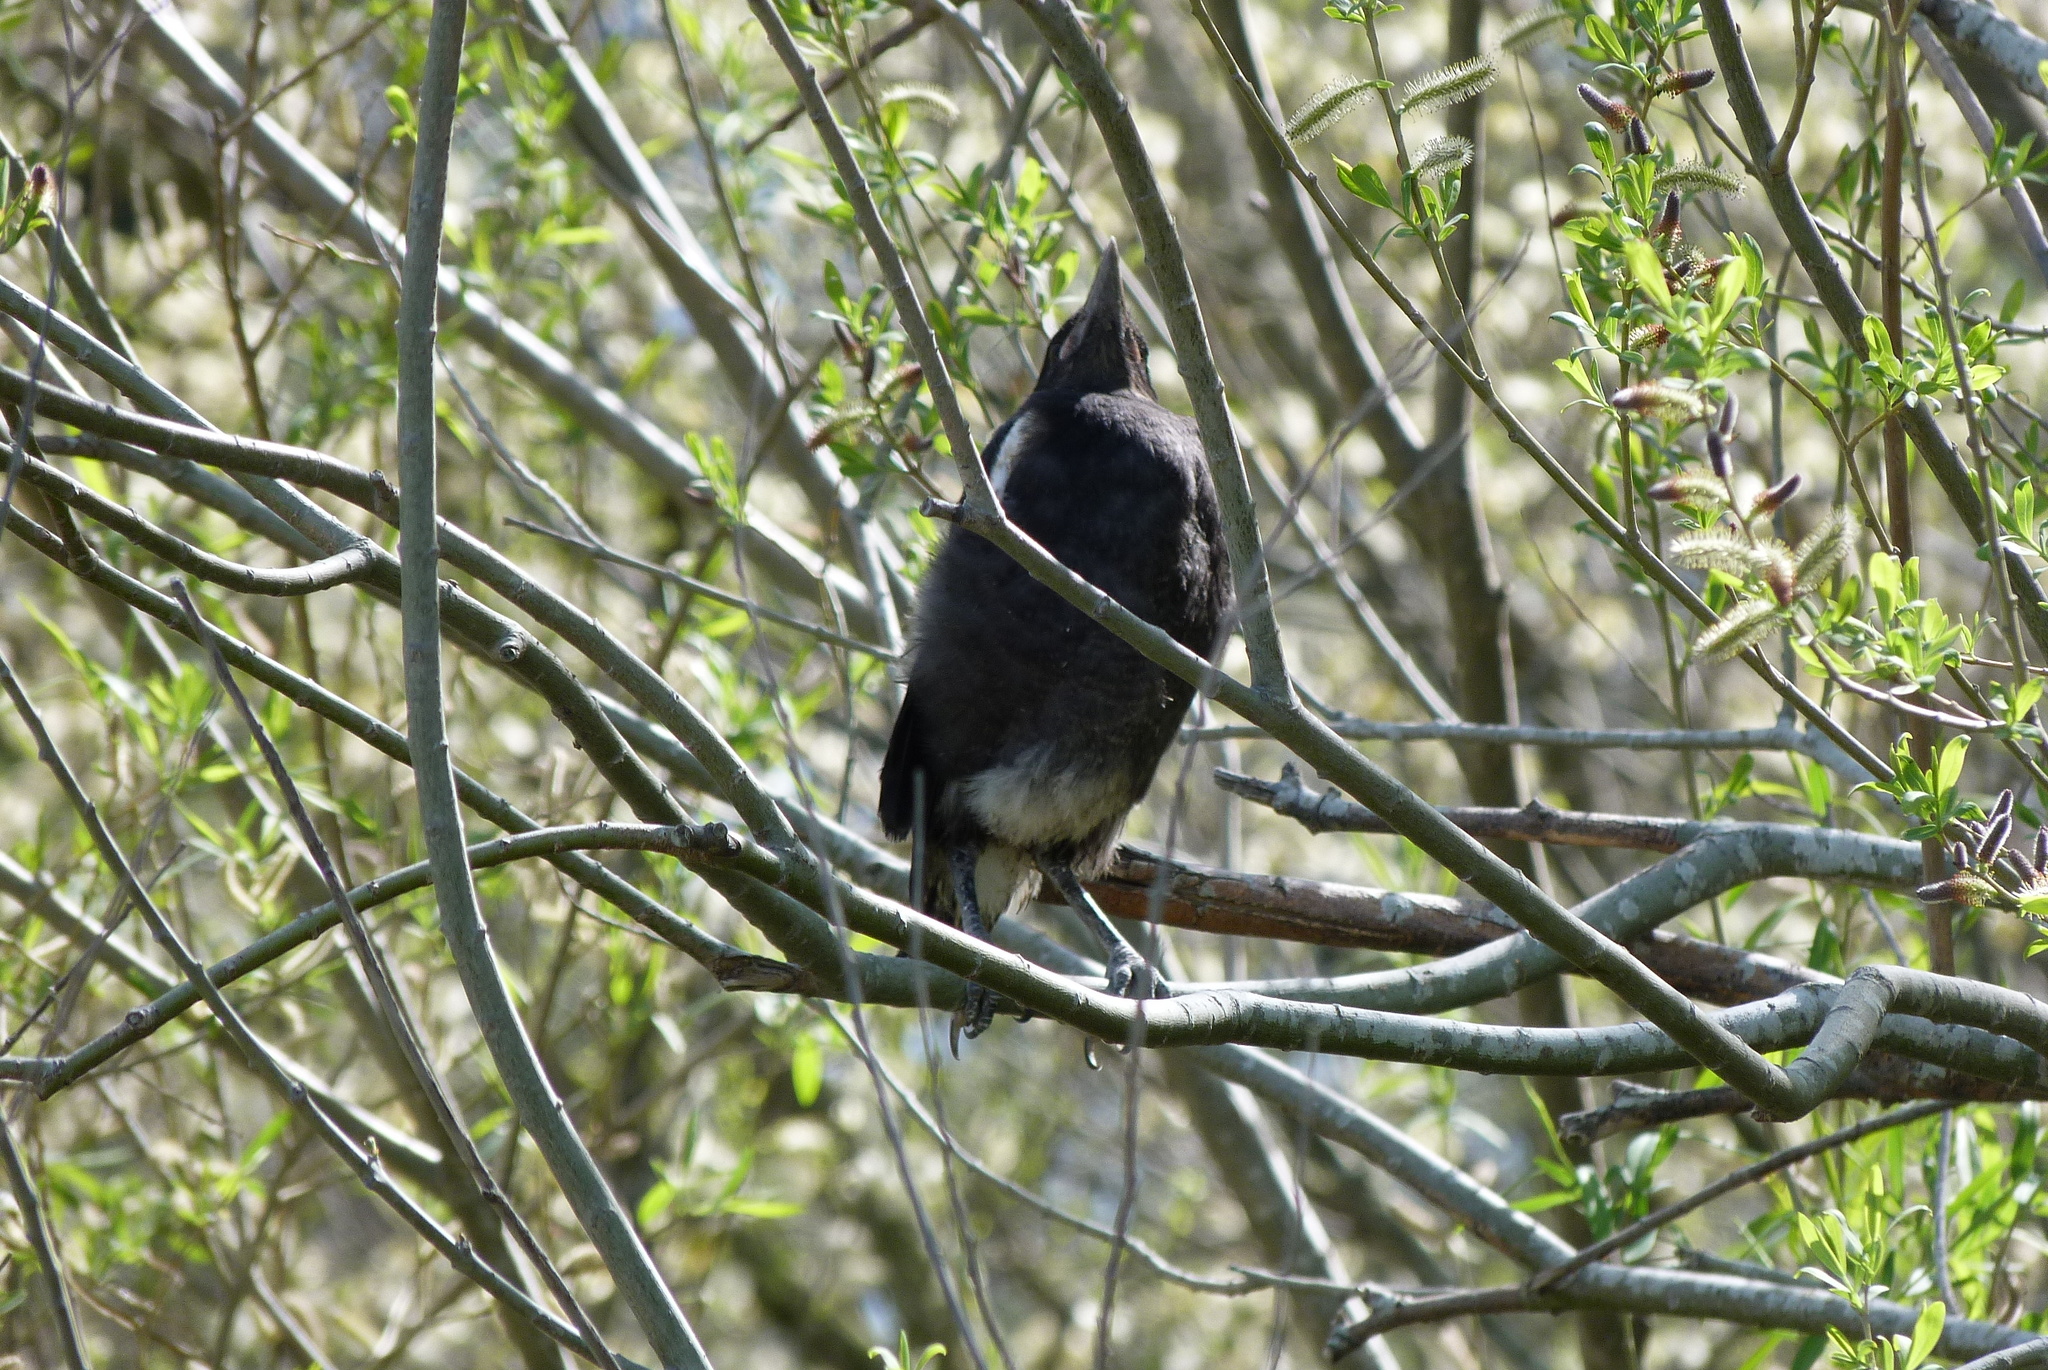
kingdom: Animalia
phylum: Chordata
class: Aves
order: Passeriformes
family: Cracticidae
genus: Gymnorhina
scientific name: Gymnorhina tibicen
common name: Australian magpie
